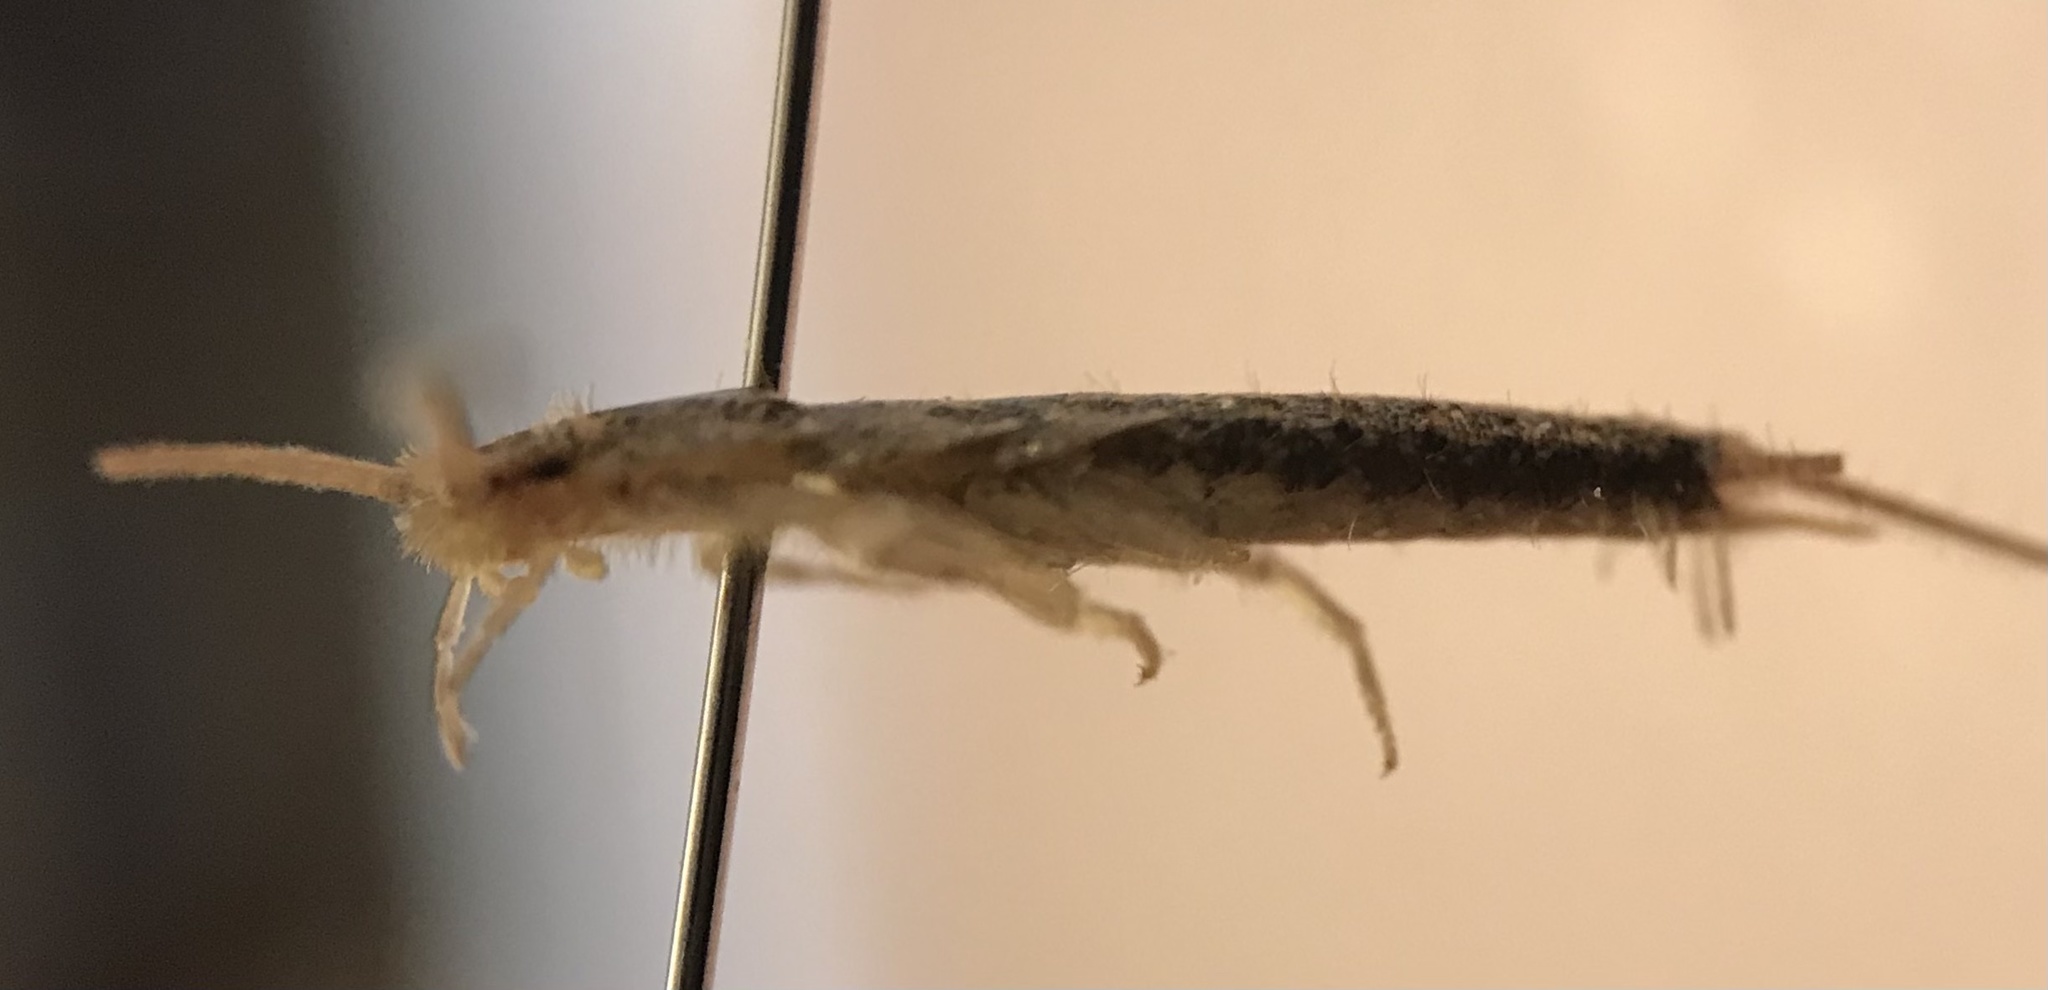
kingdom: Animalia
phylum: Arthropoda
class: Insecta
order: Zygentoma
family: Lepismatidae
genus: Ctenolepisma
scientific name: Ctenolepisma lineata
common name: Four-lined silverfish
